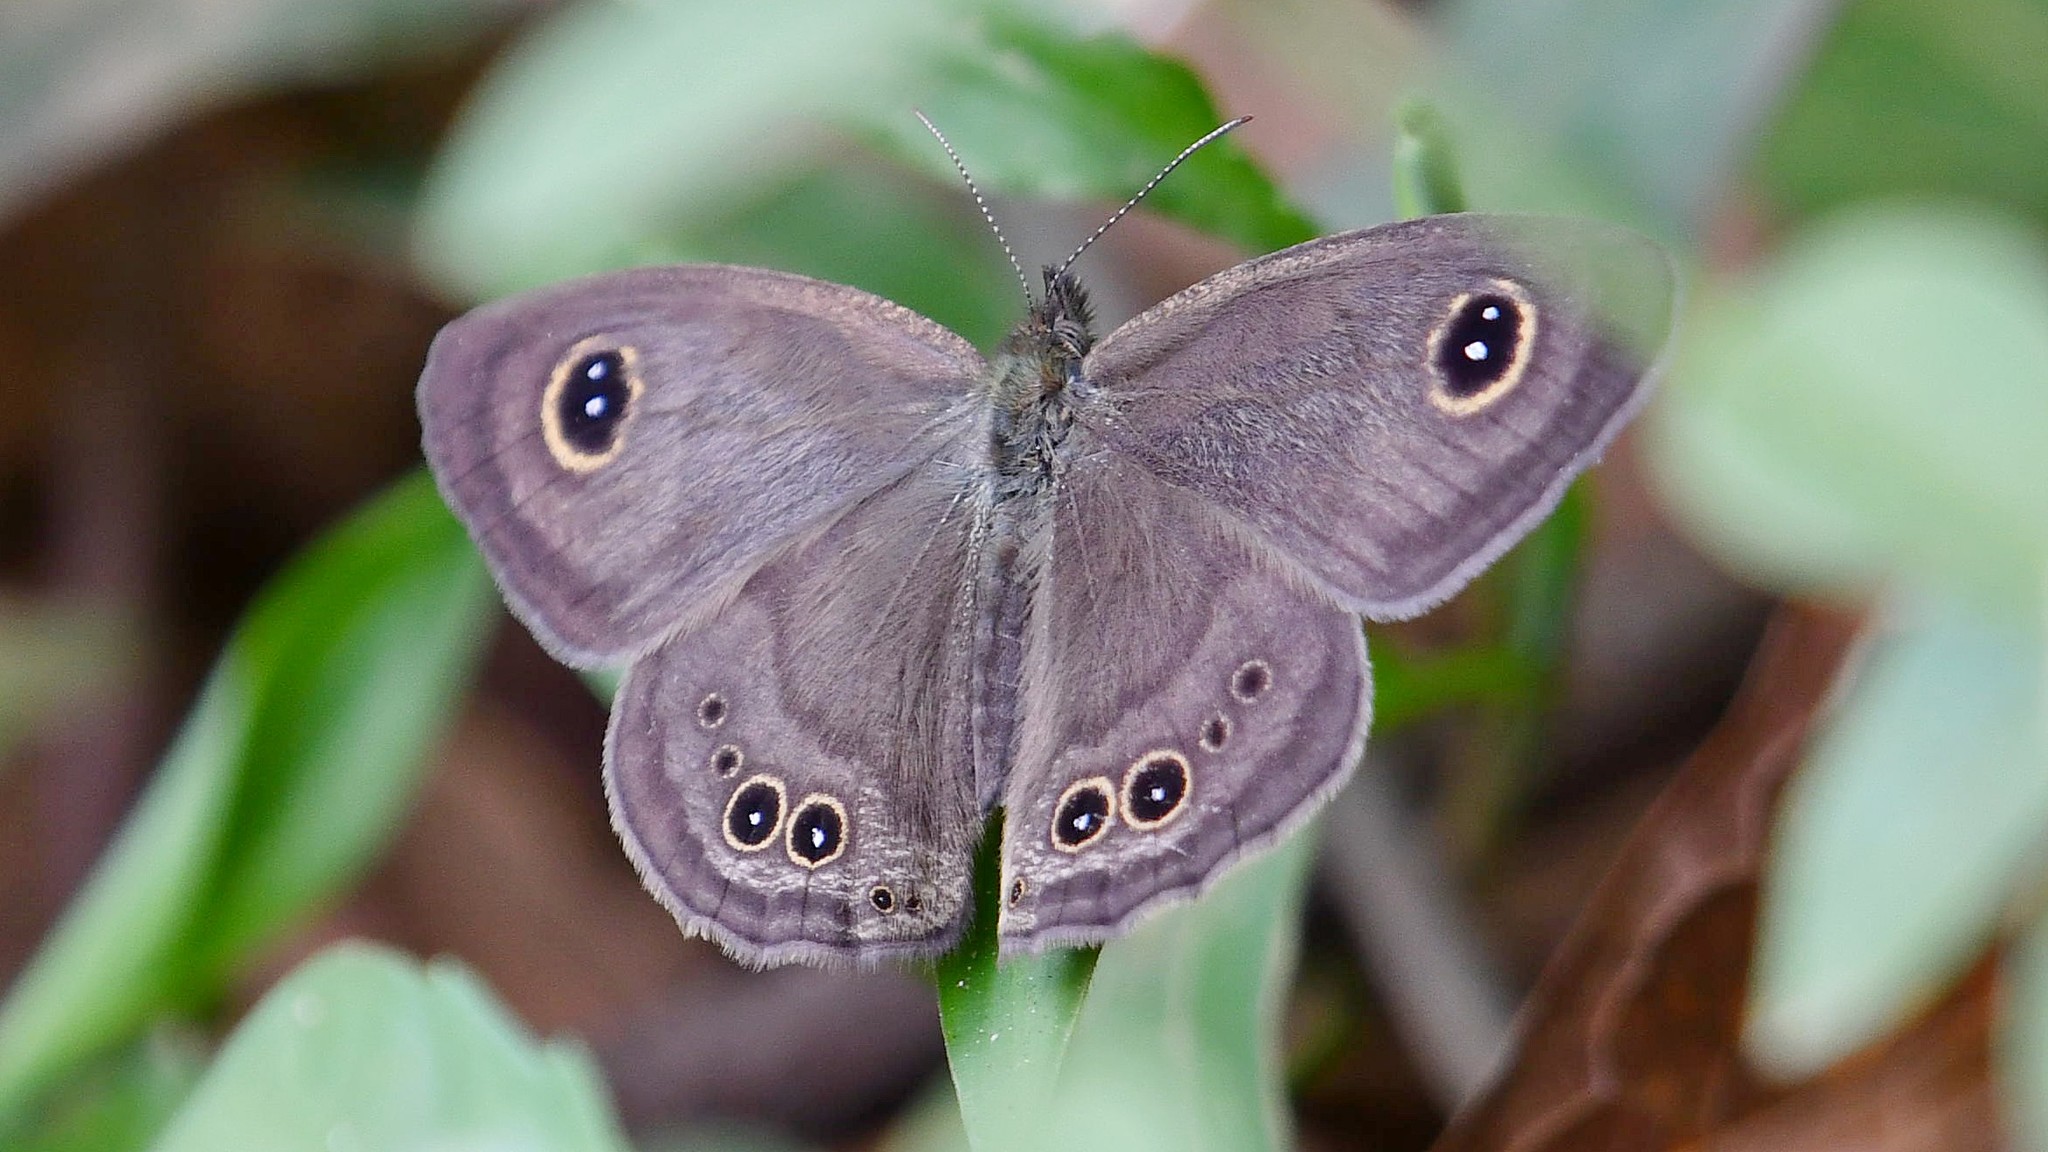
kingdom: Animalia
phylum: Arthropoda
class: Insecta
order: Lepidoptera
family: Nymphalidae
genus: Ypthima
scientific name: Ypthima baldus
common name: Common five-ring
